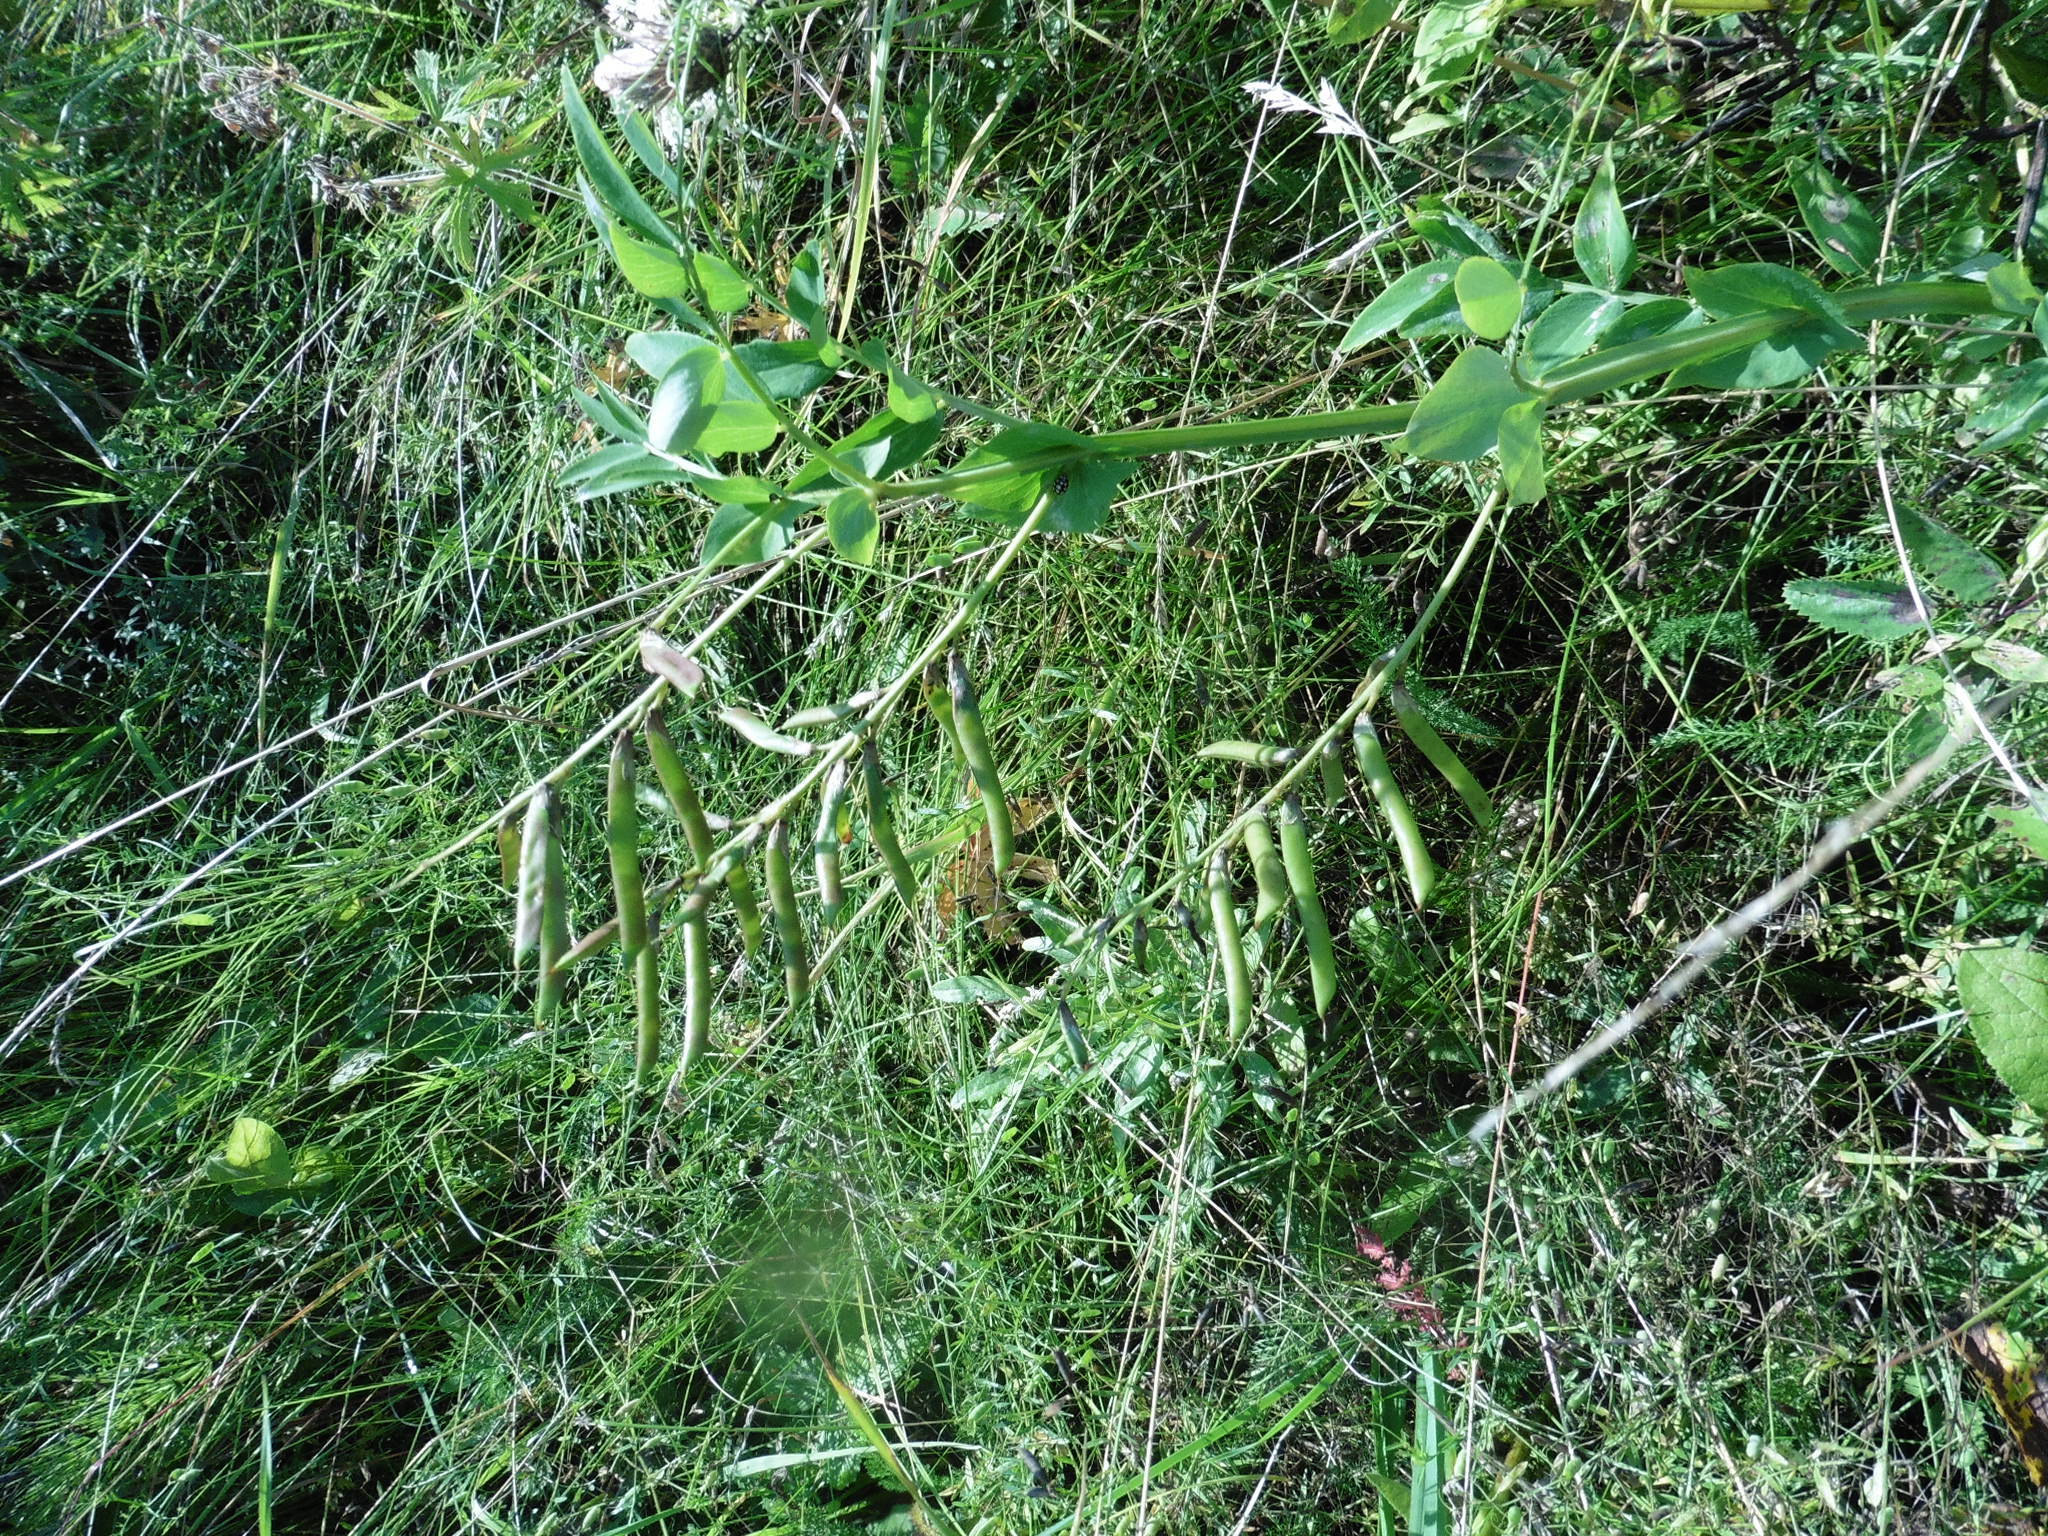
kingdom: Plantae
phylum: Tracheophyta
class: Magnoliopsida
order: Fabales
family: Fabaceae
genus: Lathyrus
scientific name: Lathyrus pisiformis
